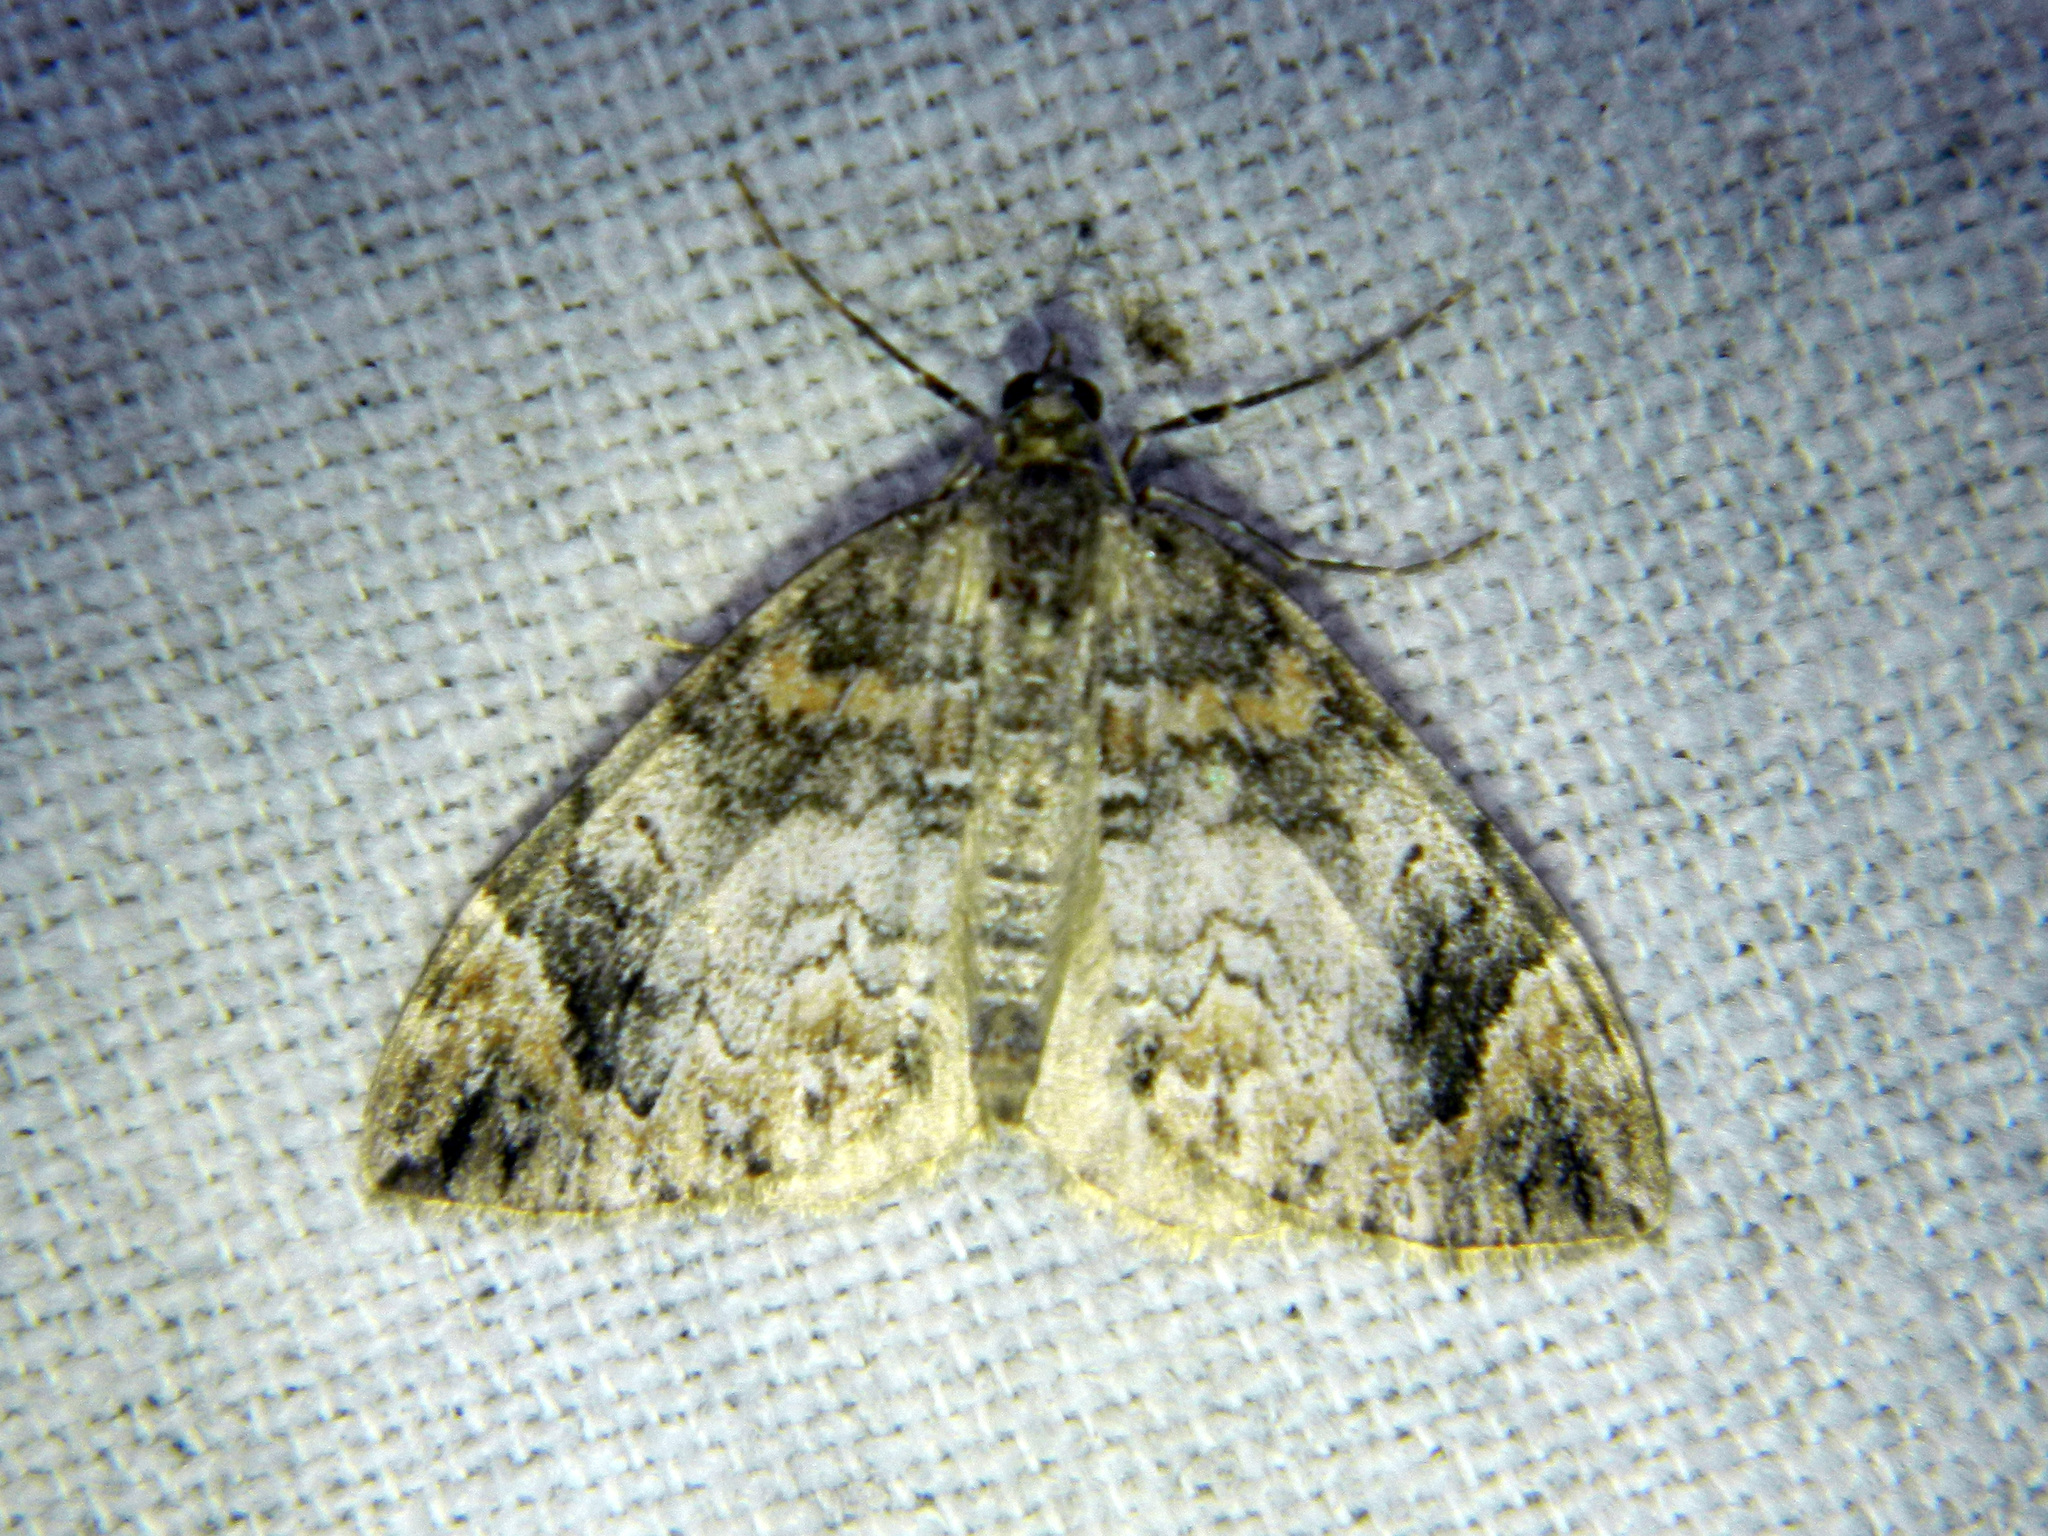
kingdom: Animalia
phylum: Arthropoda
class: Insecta
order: Lepidoptera
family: Geometridae
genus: Dysstroma
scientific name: Dysstroma citrata
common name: Dark marbled carpet
